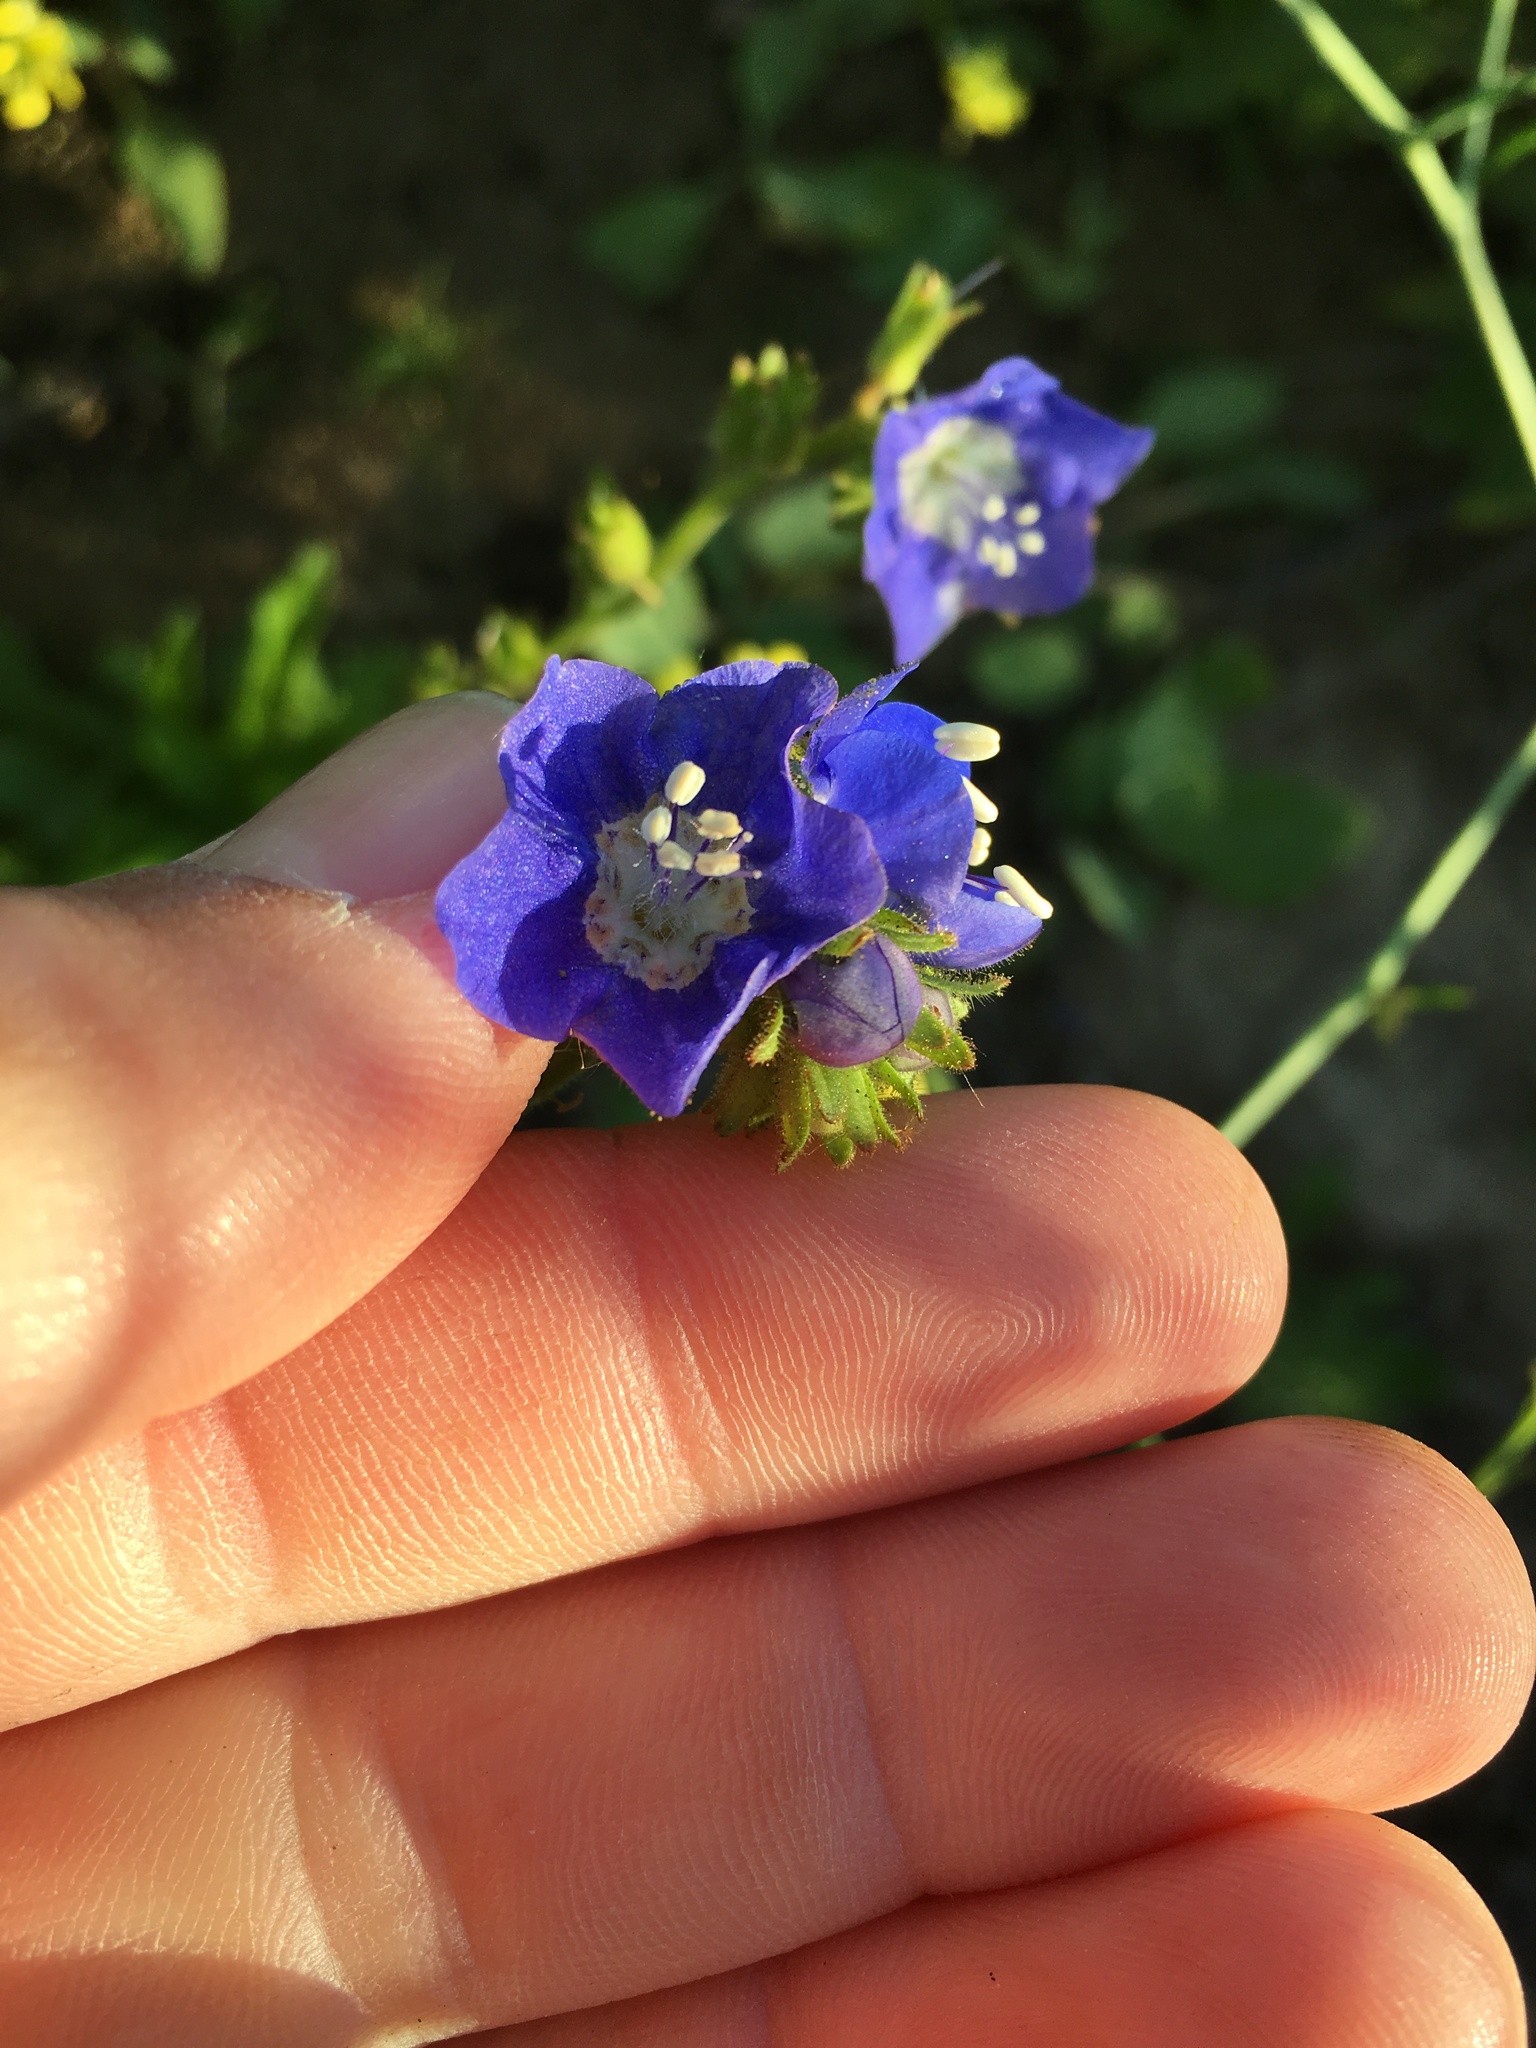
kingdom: Plantae
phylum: Tracheophyta
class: Magnoliopsida
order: Boraginales
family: Hydrophyllaceae
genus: Phacelia
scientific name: Phacelia viscida
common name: Sticky phacelia
